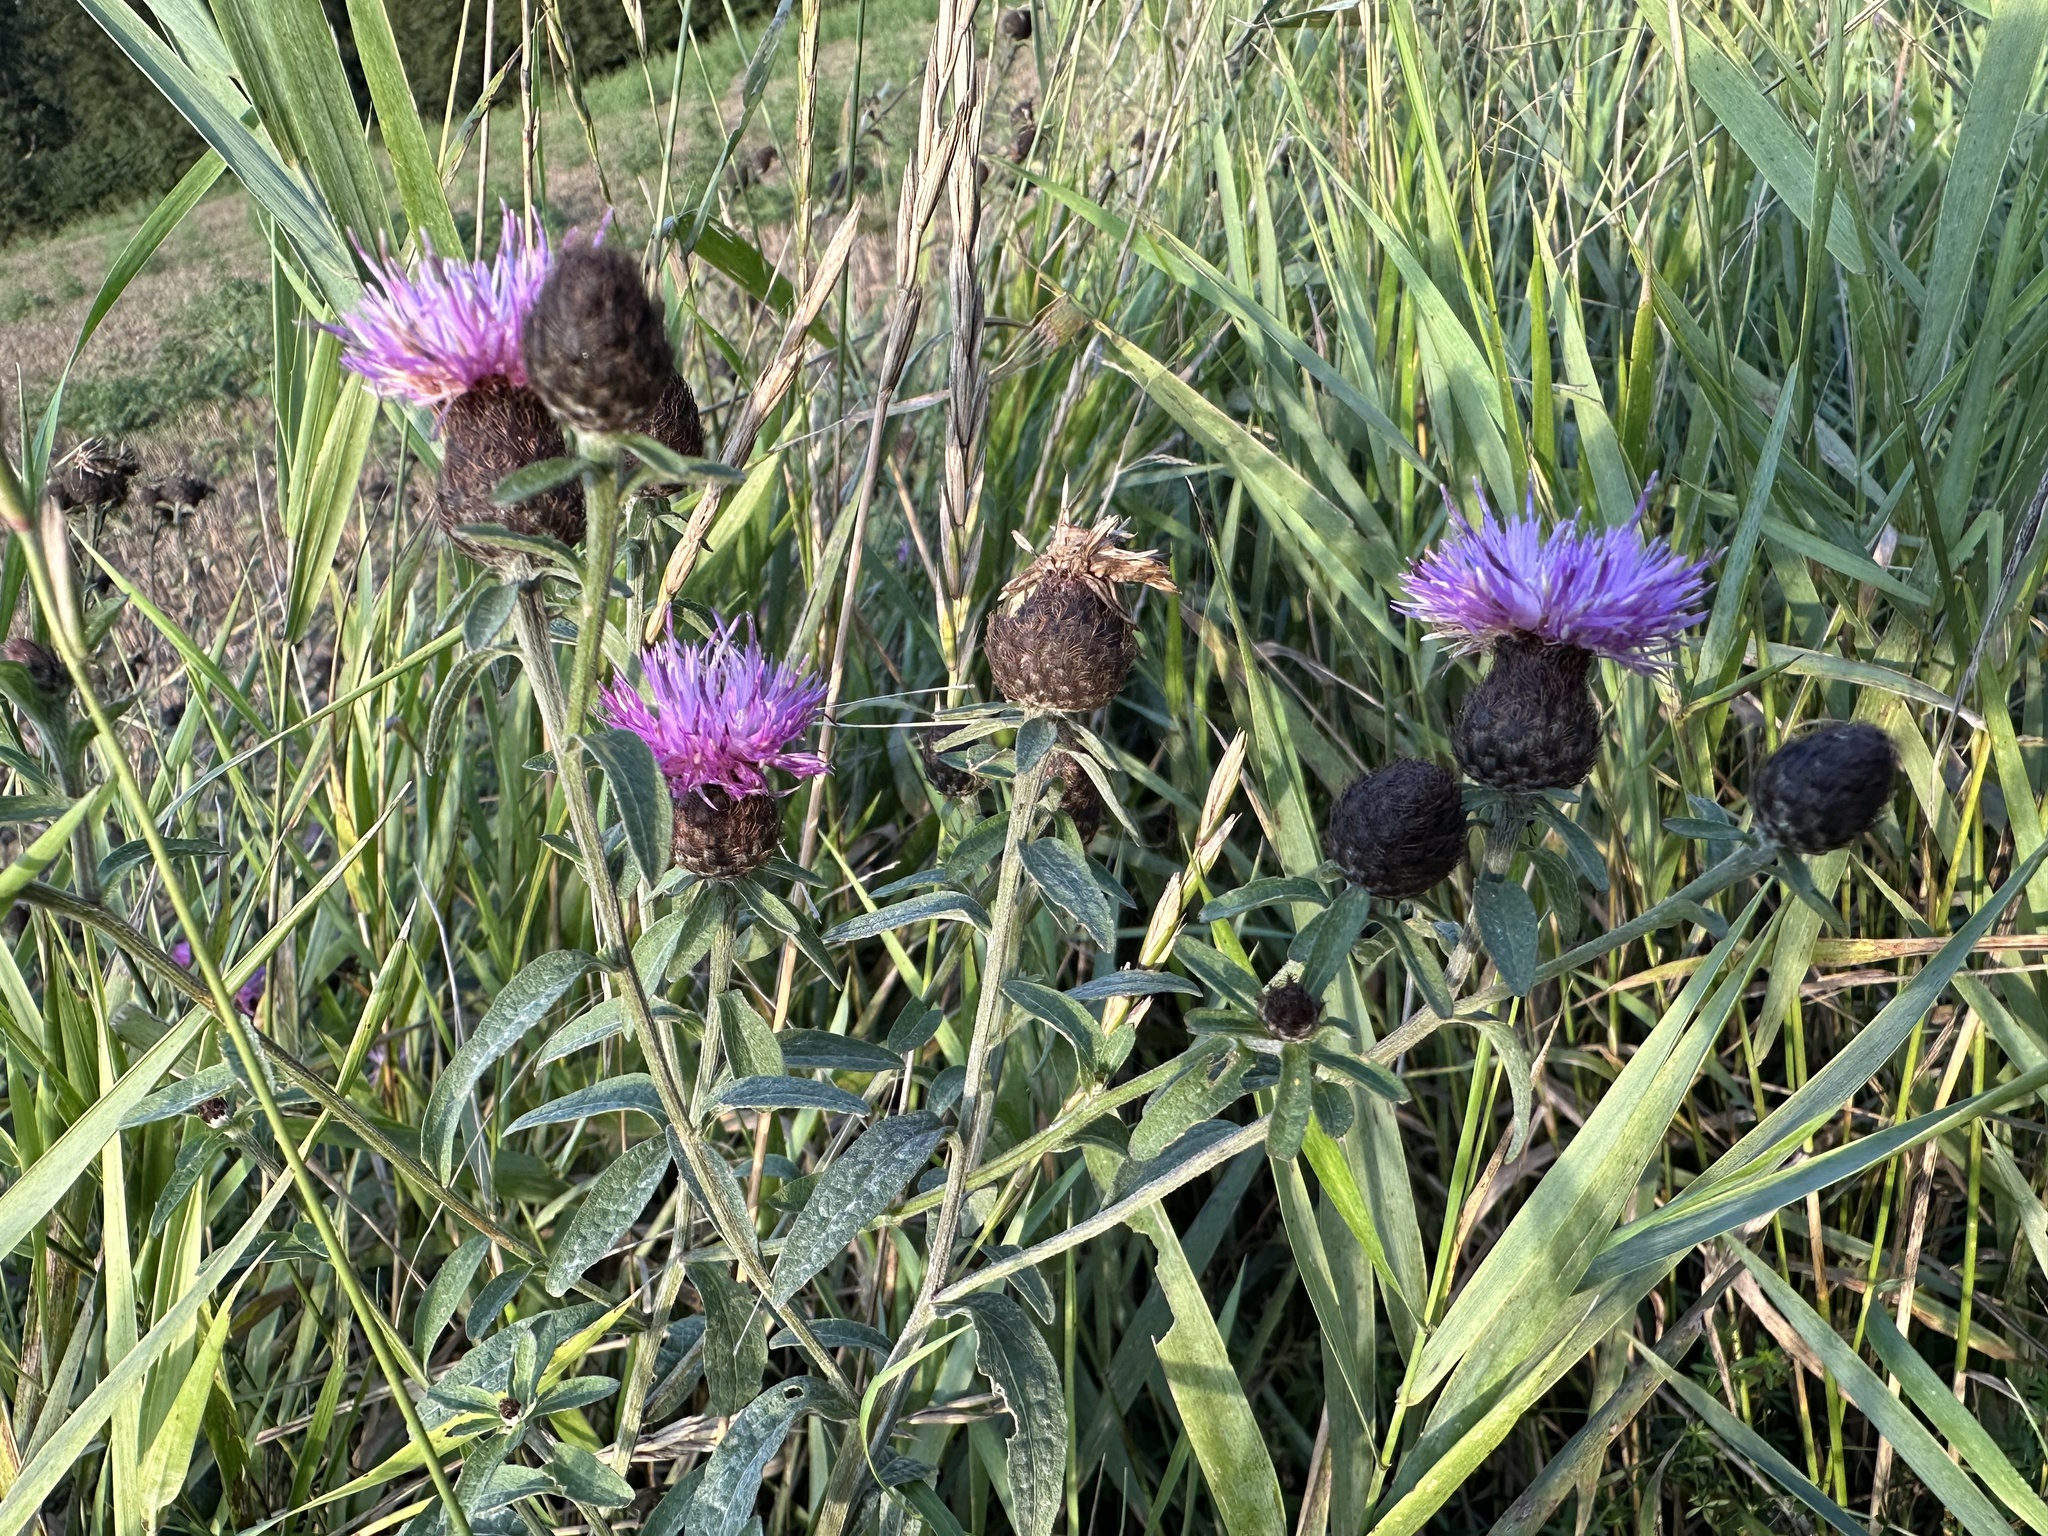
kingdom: Plantae
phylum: Tracheophyta
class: Magnoliopsida
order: Asterales
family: Asteraceae
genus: Centaurea
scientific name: Centaurea nigra
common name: Lesser knapweed
